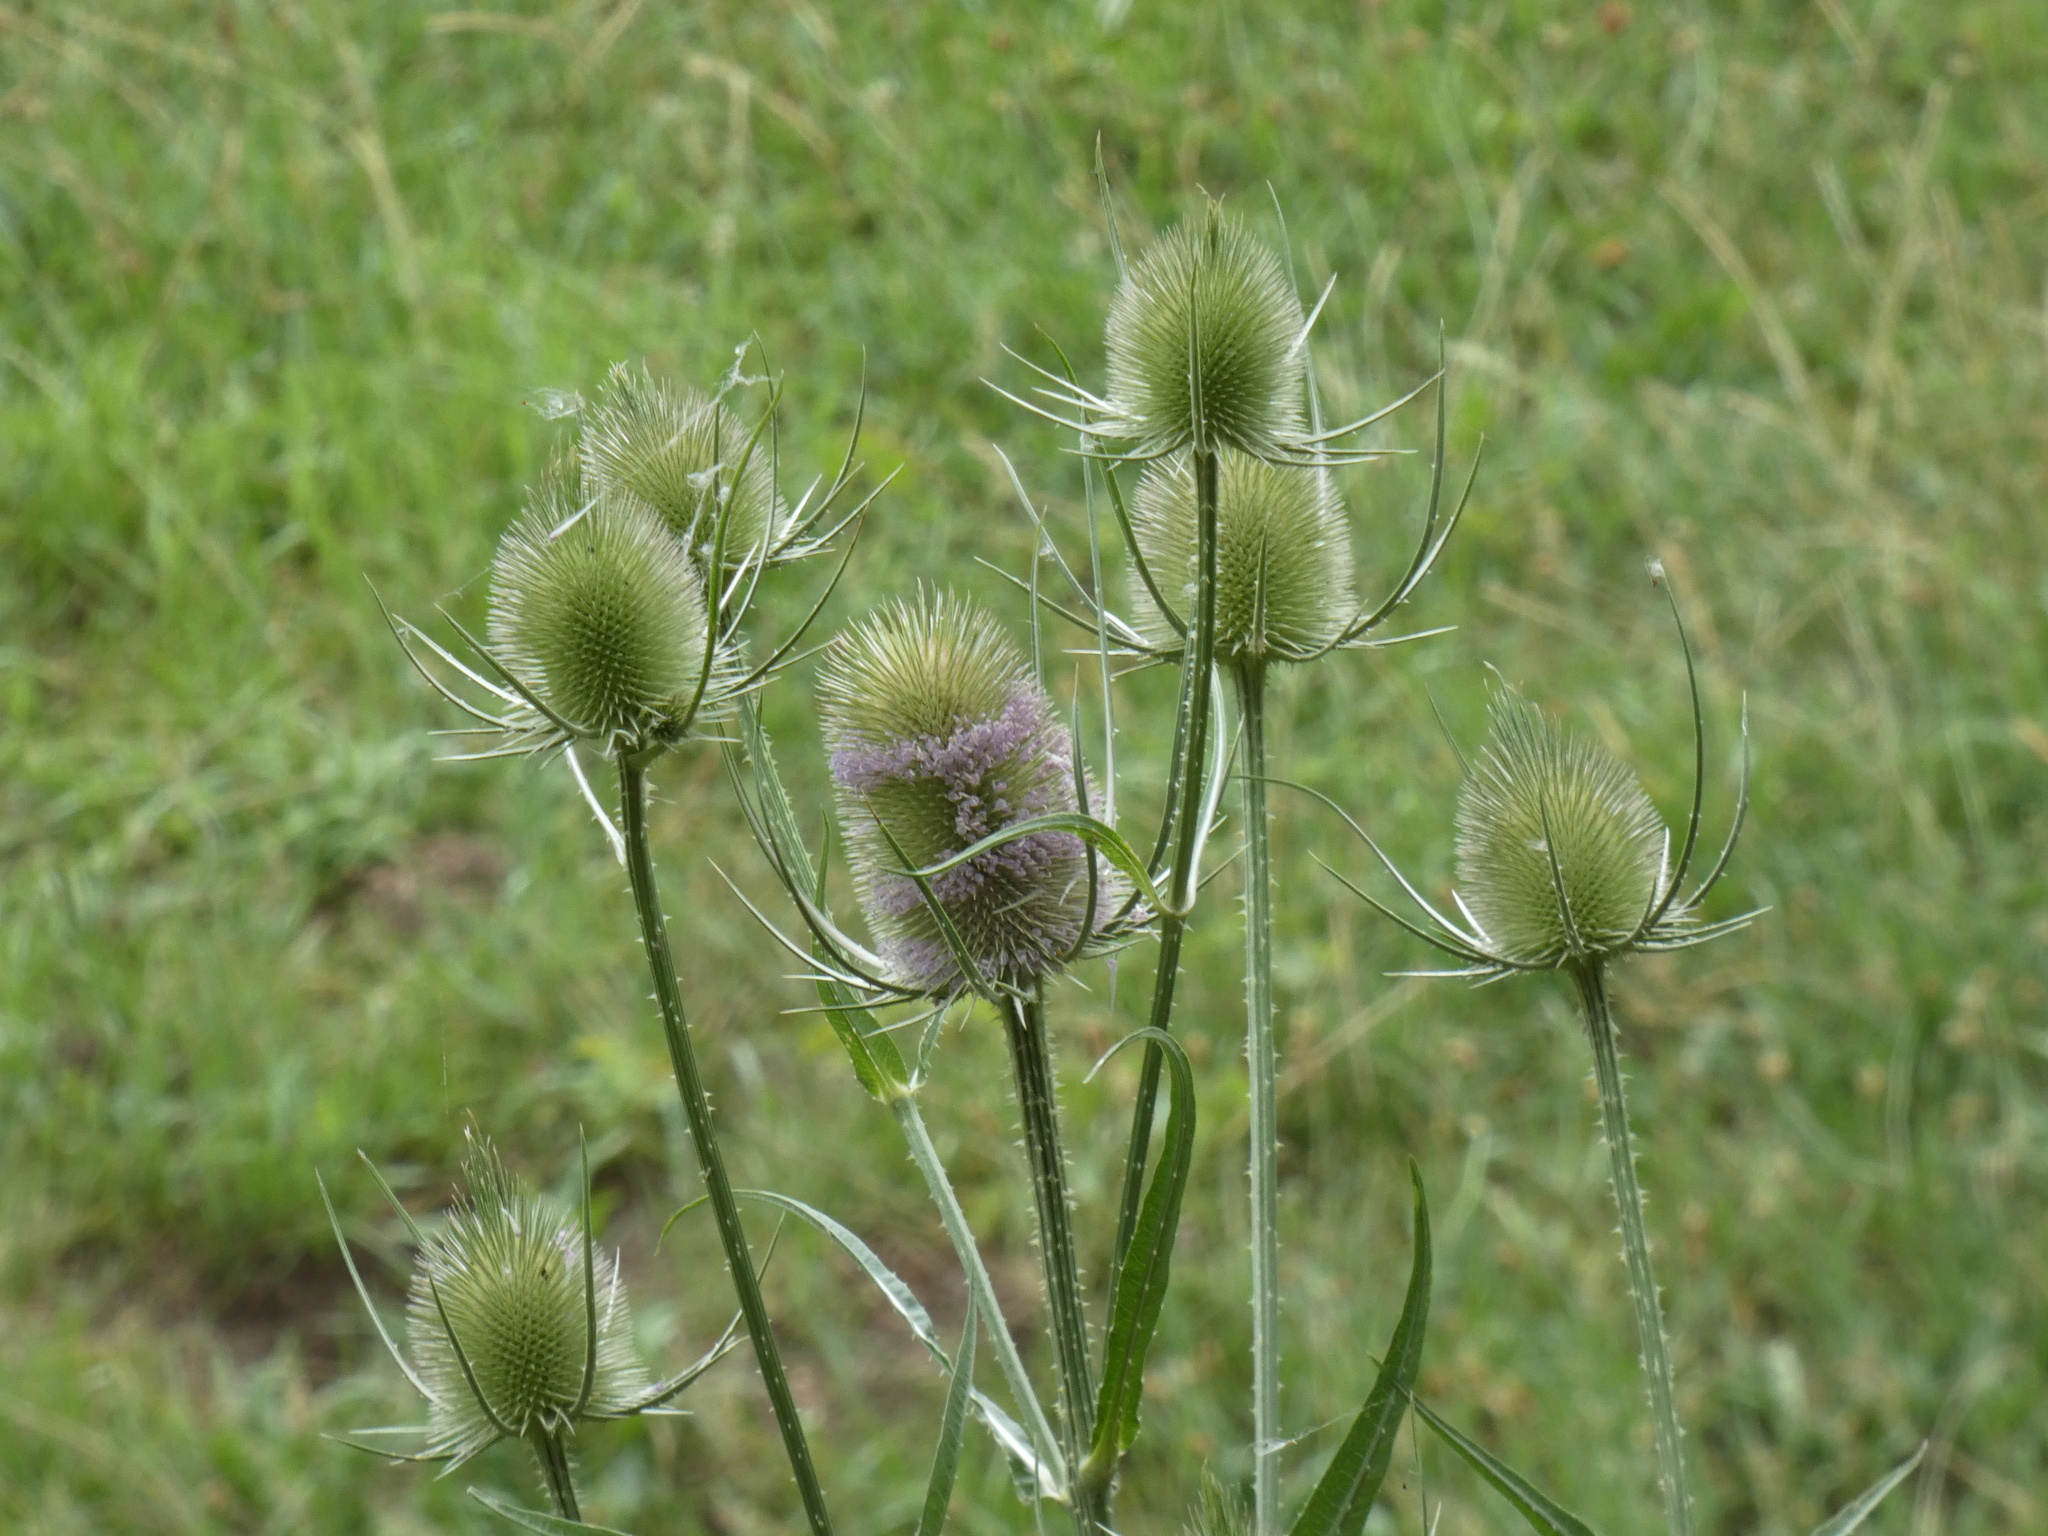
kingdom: Plantae
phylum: Tracheophyta
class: Magnoliopsida
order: Dipsacales
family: Caprifoliaceae
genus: Dipsacus
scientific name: Dipsacus fullonum
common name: Teasel
